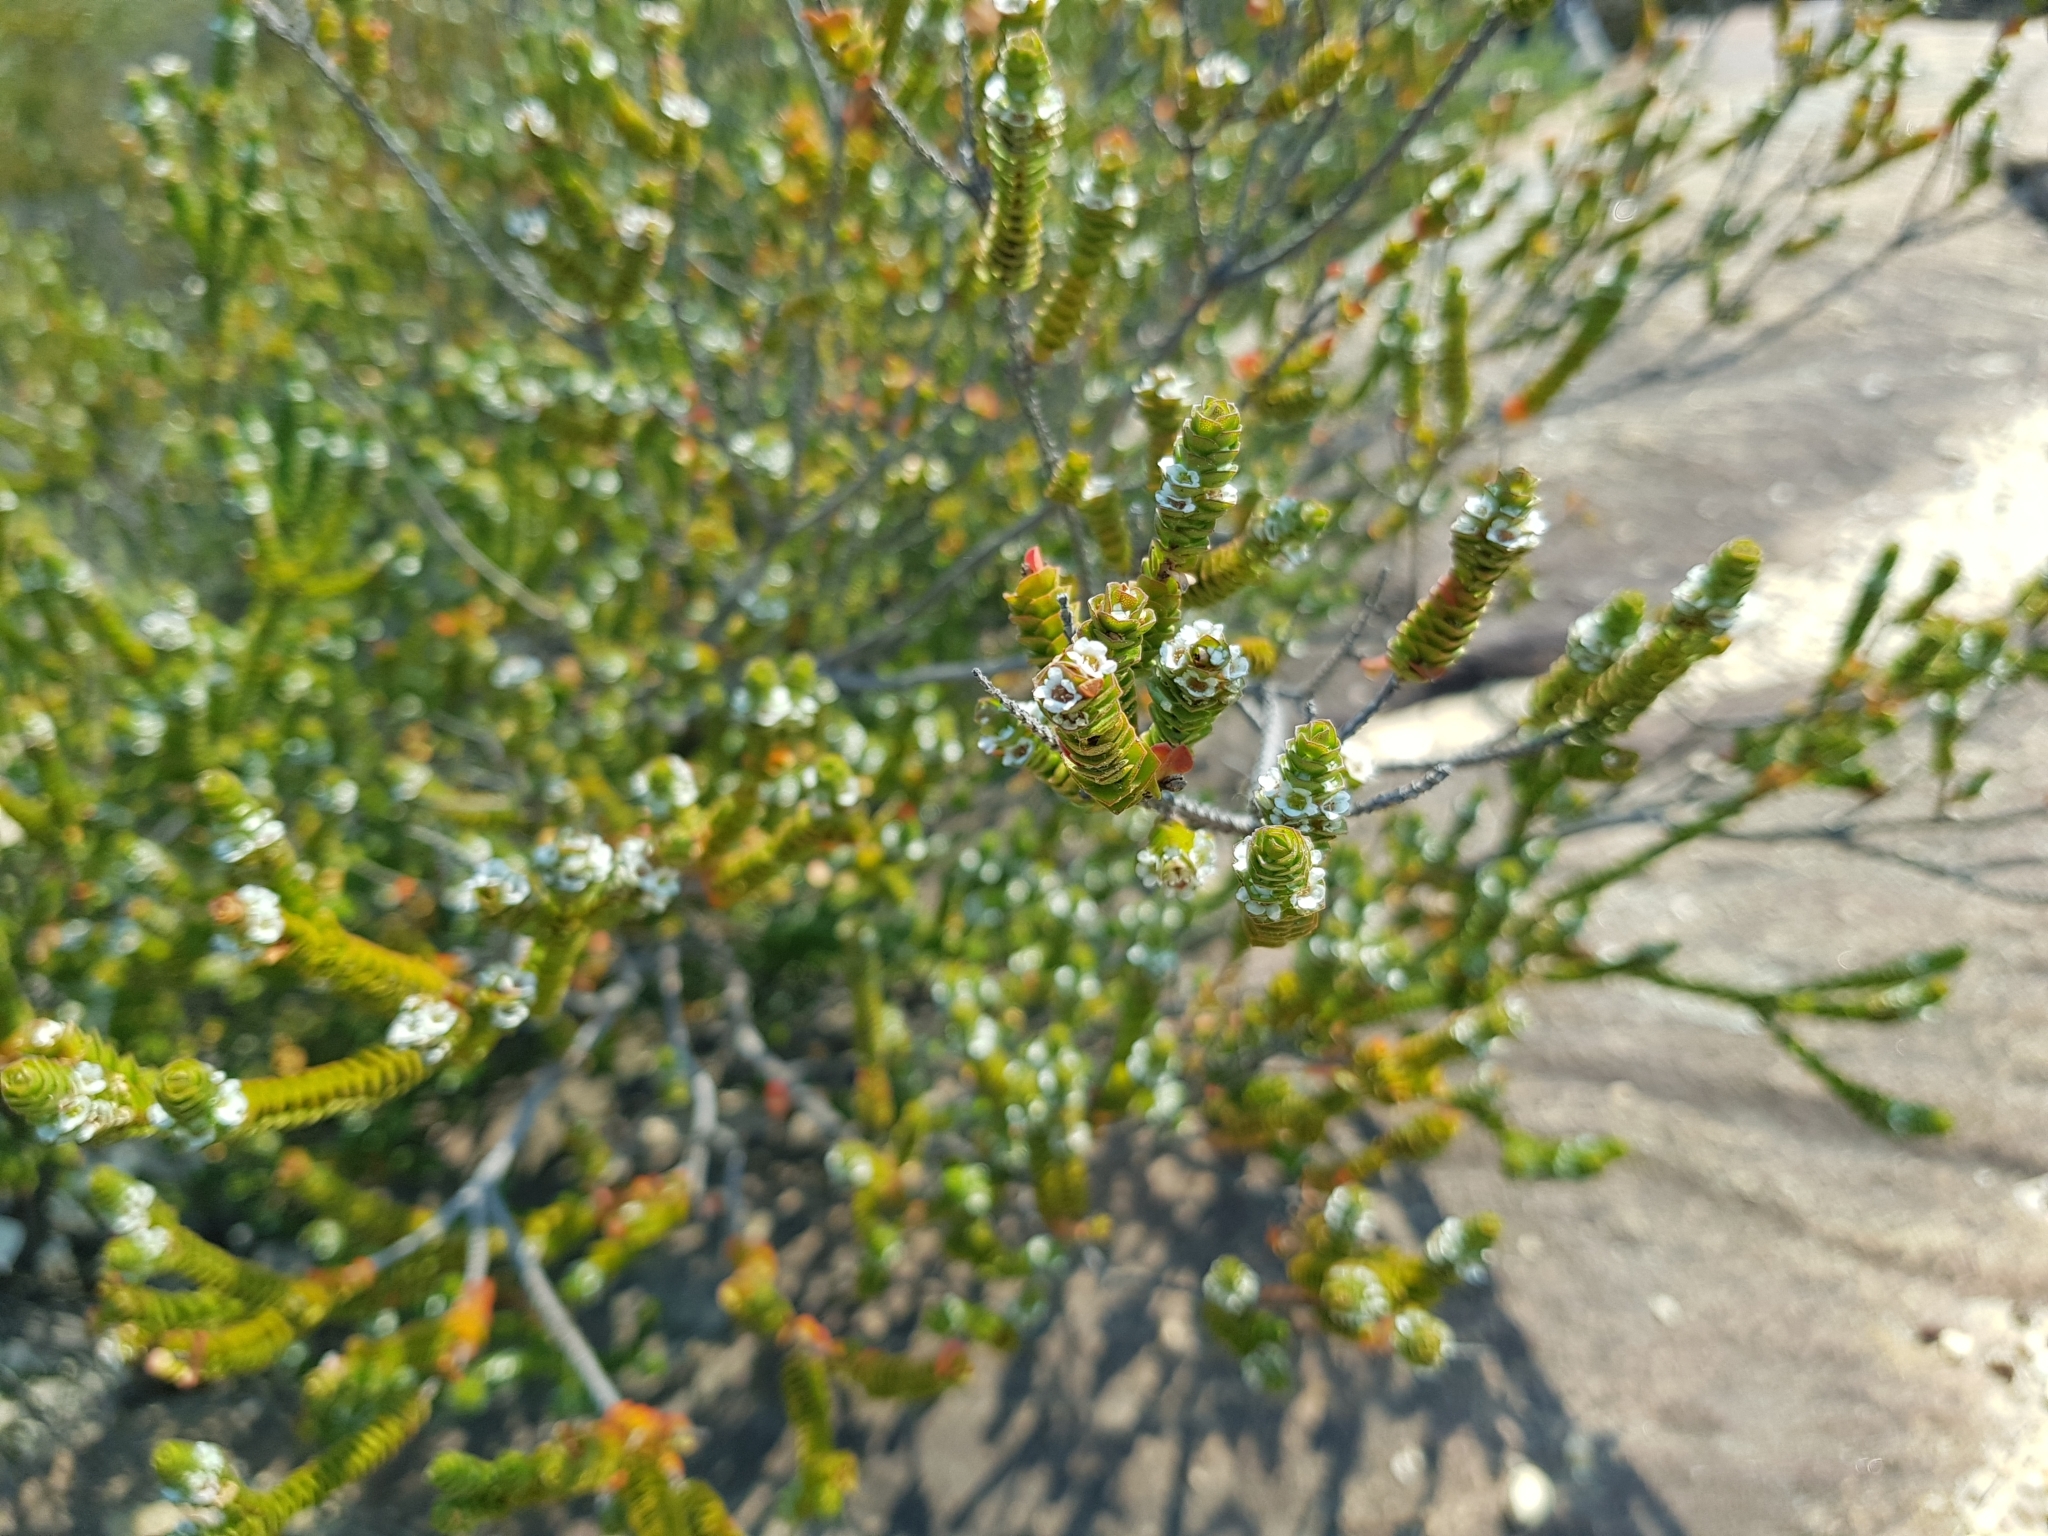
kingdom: Plantae
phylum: Tracheophyta
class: Magnoliopsida
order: Myrtales
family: Myrtaceae
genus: Baeckea
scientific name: Baeckea imbricata
